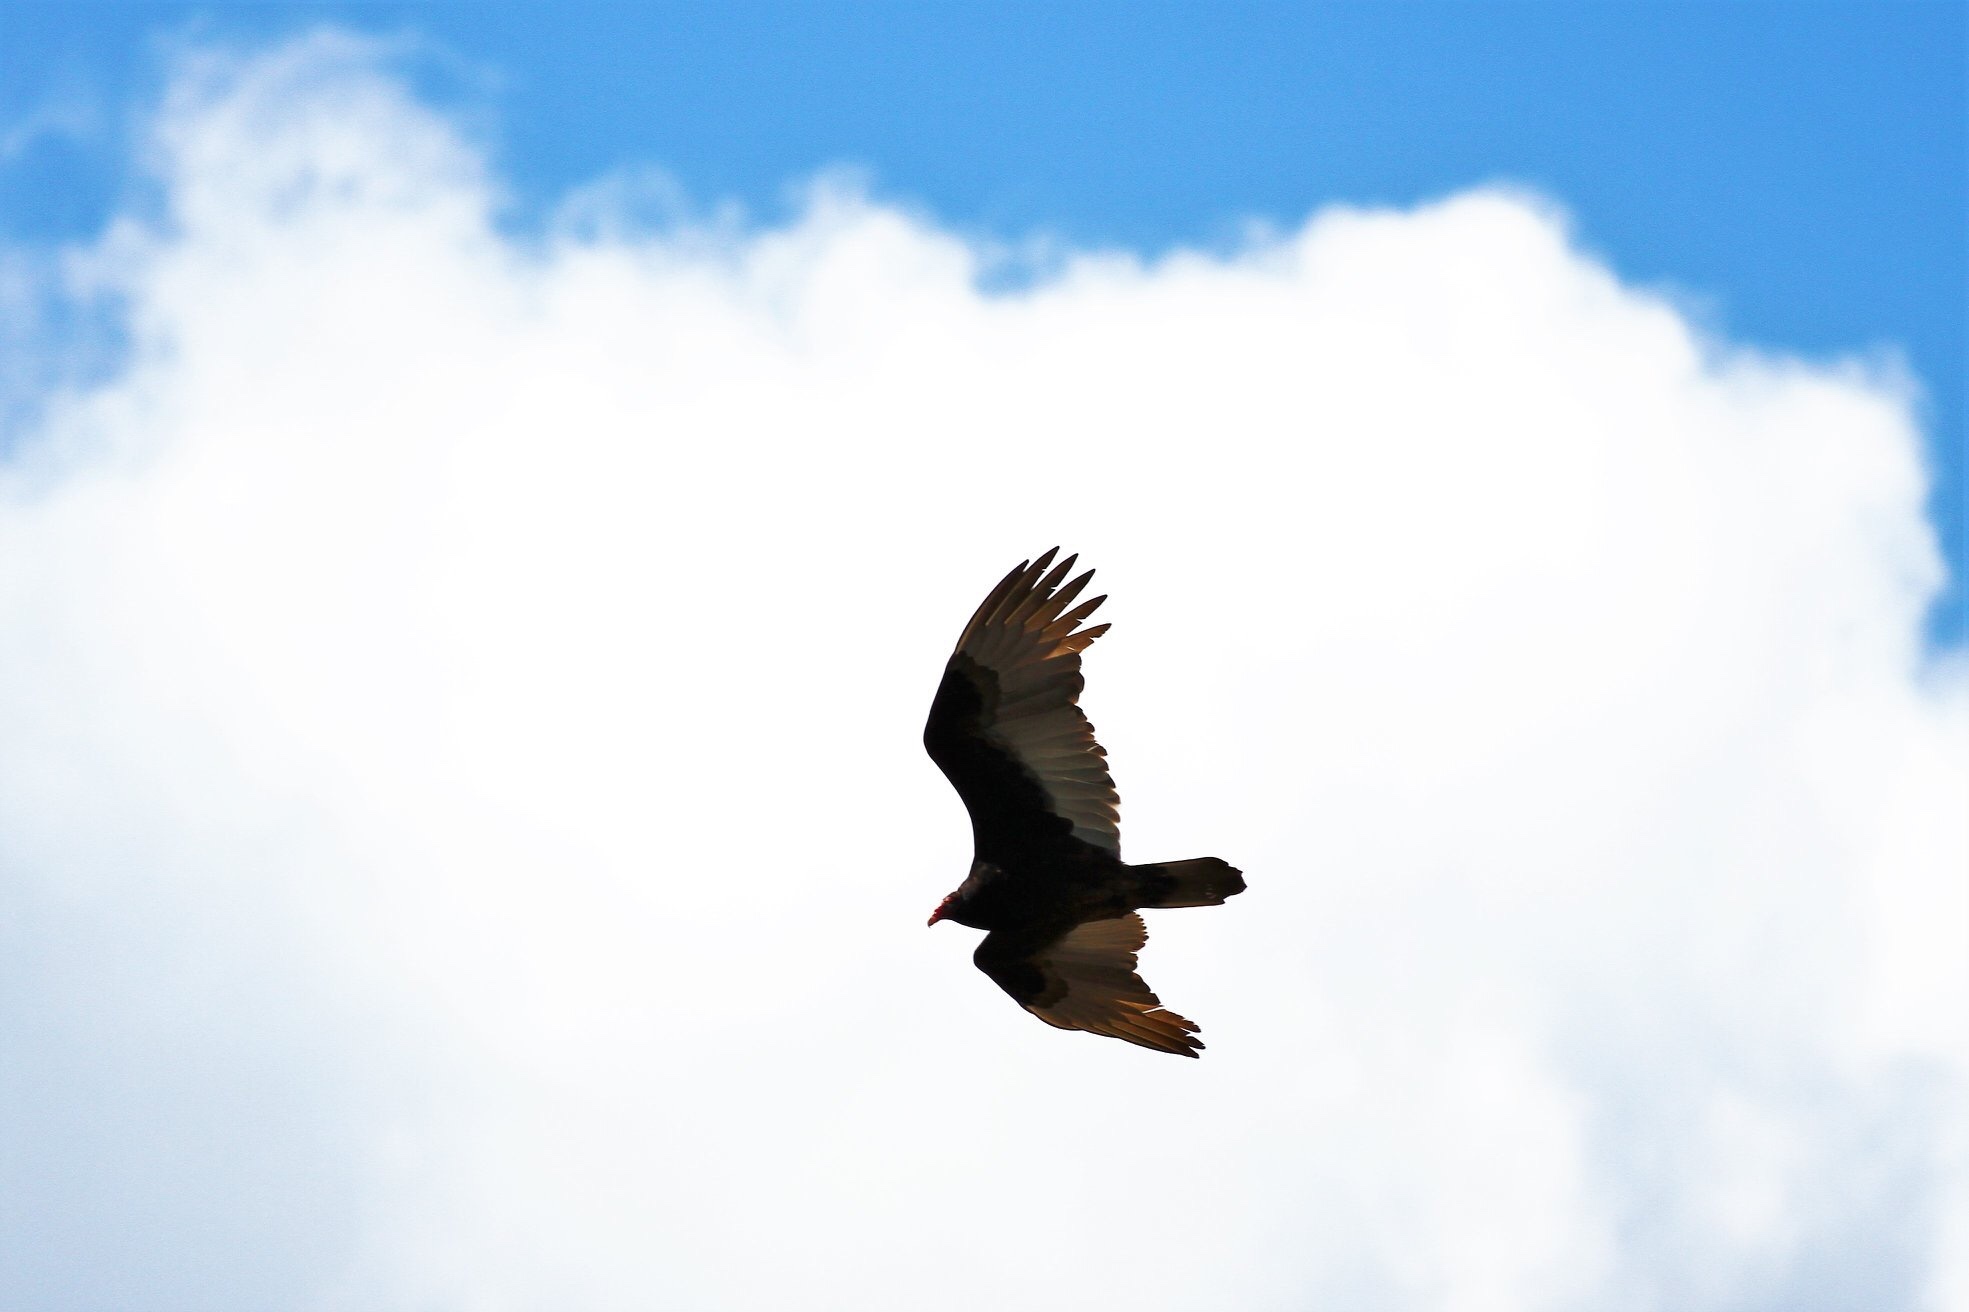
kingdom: Animalia
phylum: Chordata
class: Aves
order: Accipitriformes
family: Cathartidae
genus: Cathartes
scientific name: Cathartes aura
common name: Turkey vulture
